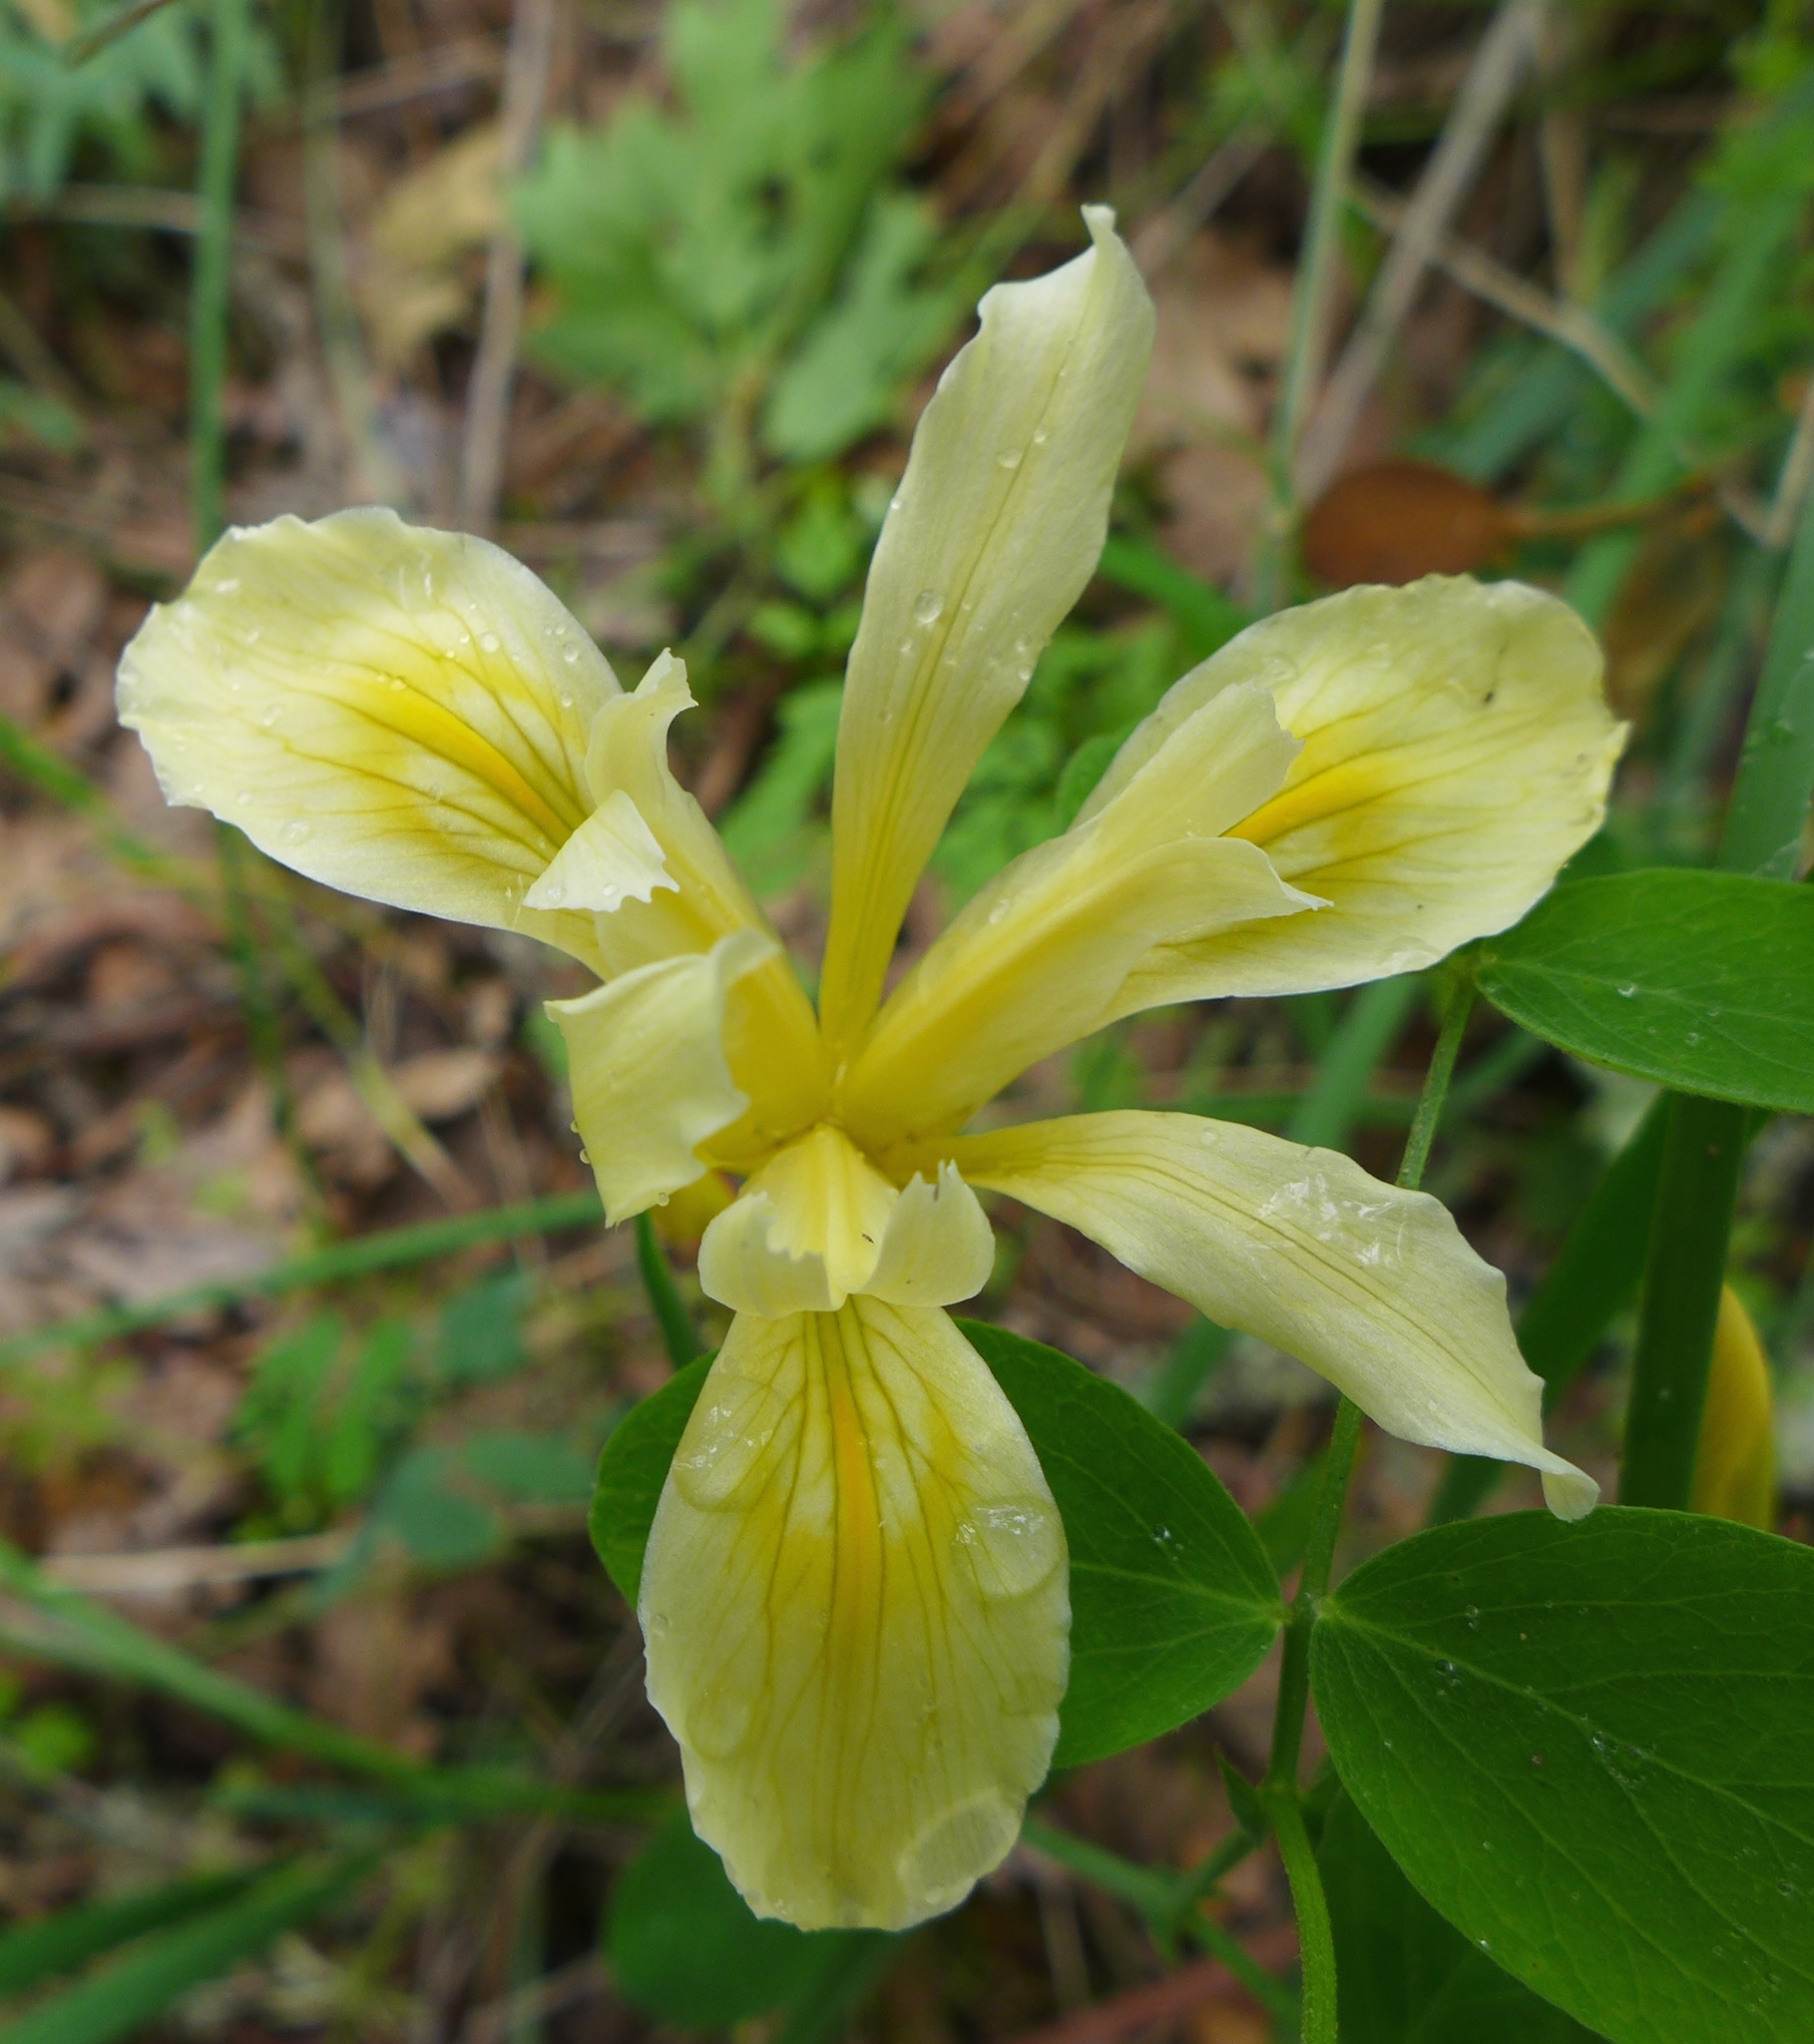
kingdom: Plantae
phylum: Tracheophyta
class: Liliopsida
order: Asparagales
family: Iridaceae
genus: Iris
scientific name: Iris fernaldii
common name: Fernald's iris
